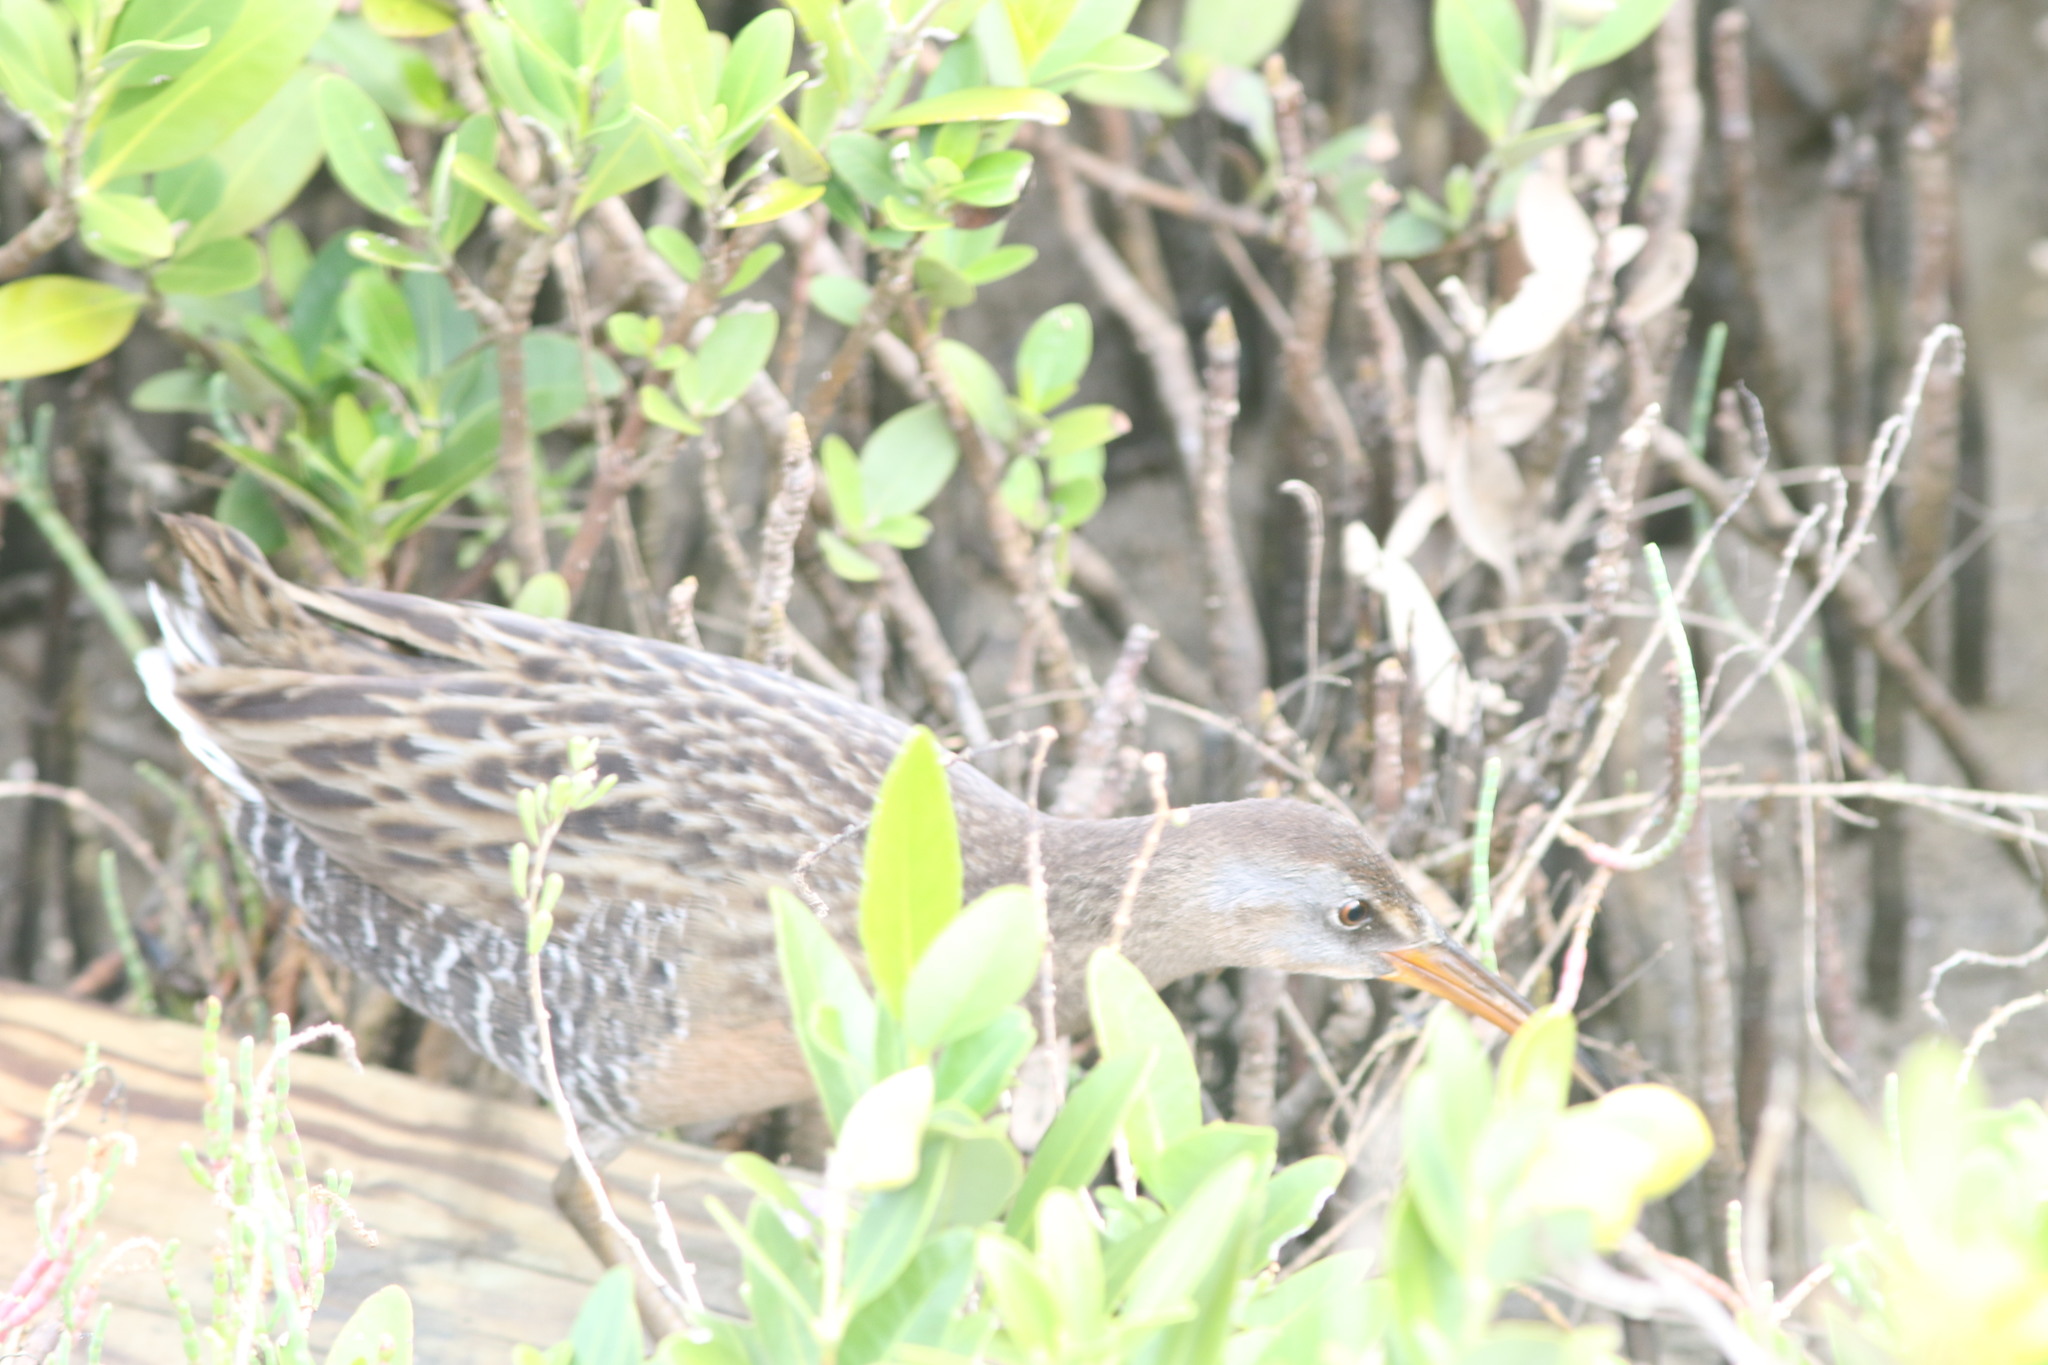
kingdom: Animalia
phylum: Chordata
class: Aves
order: Gruiformes
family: Rallidae
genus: Rallus
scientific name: Rallus crepitans
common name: Clapper rail
